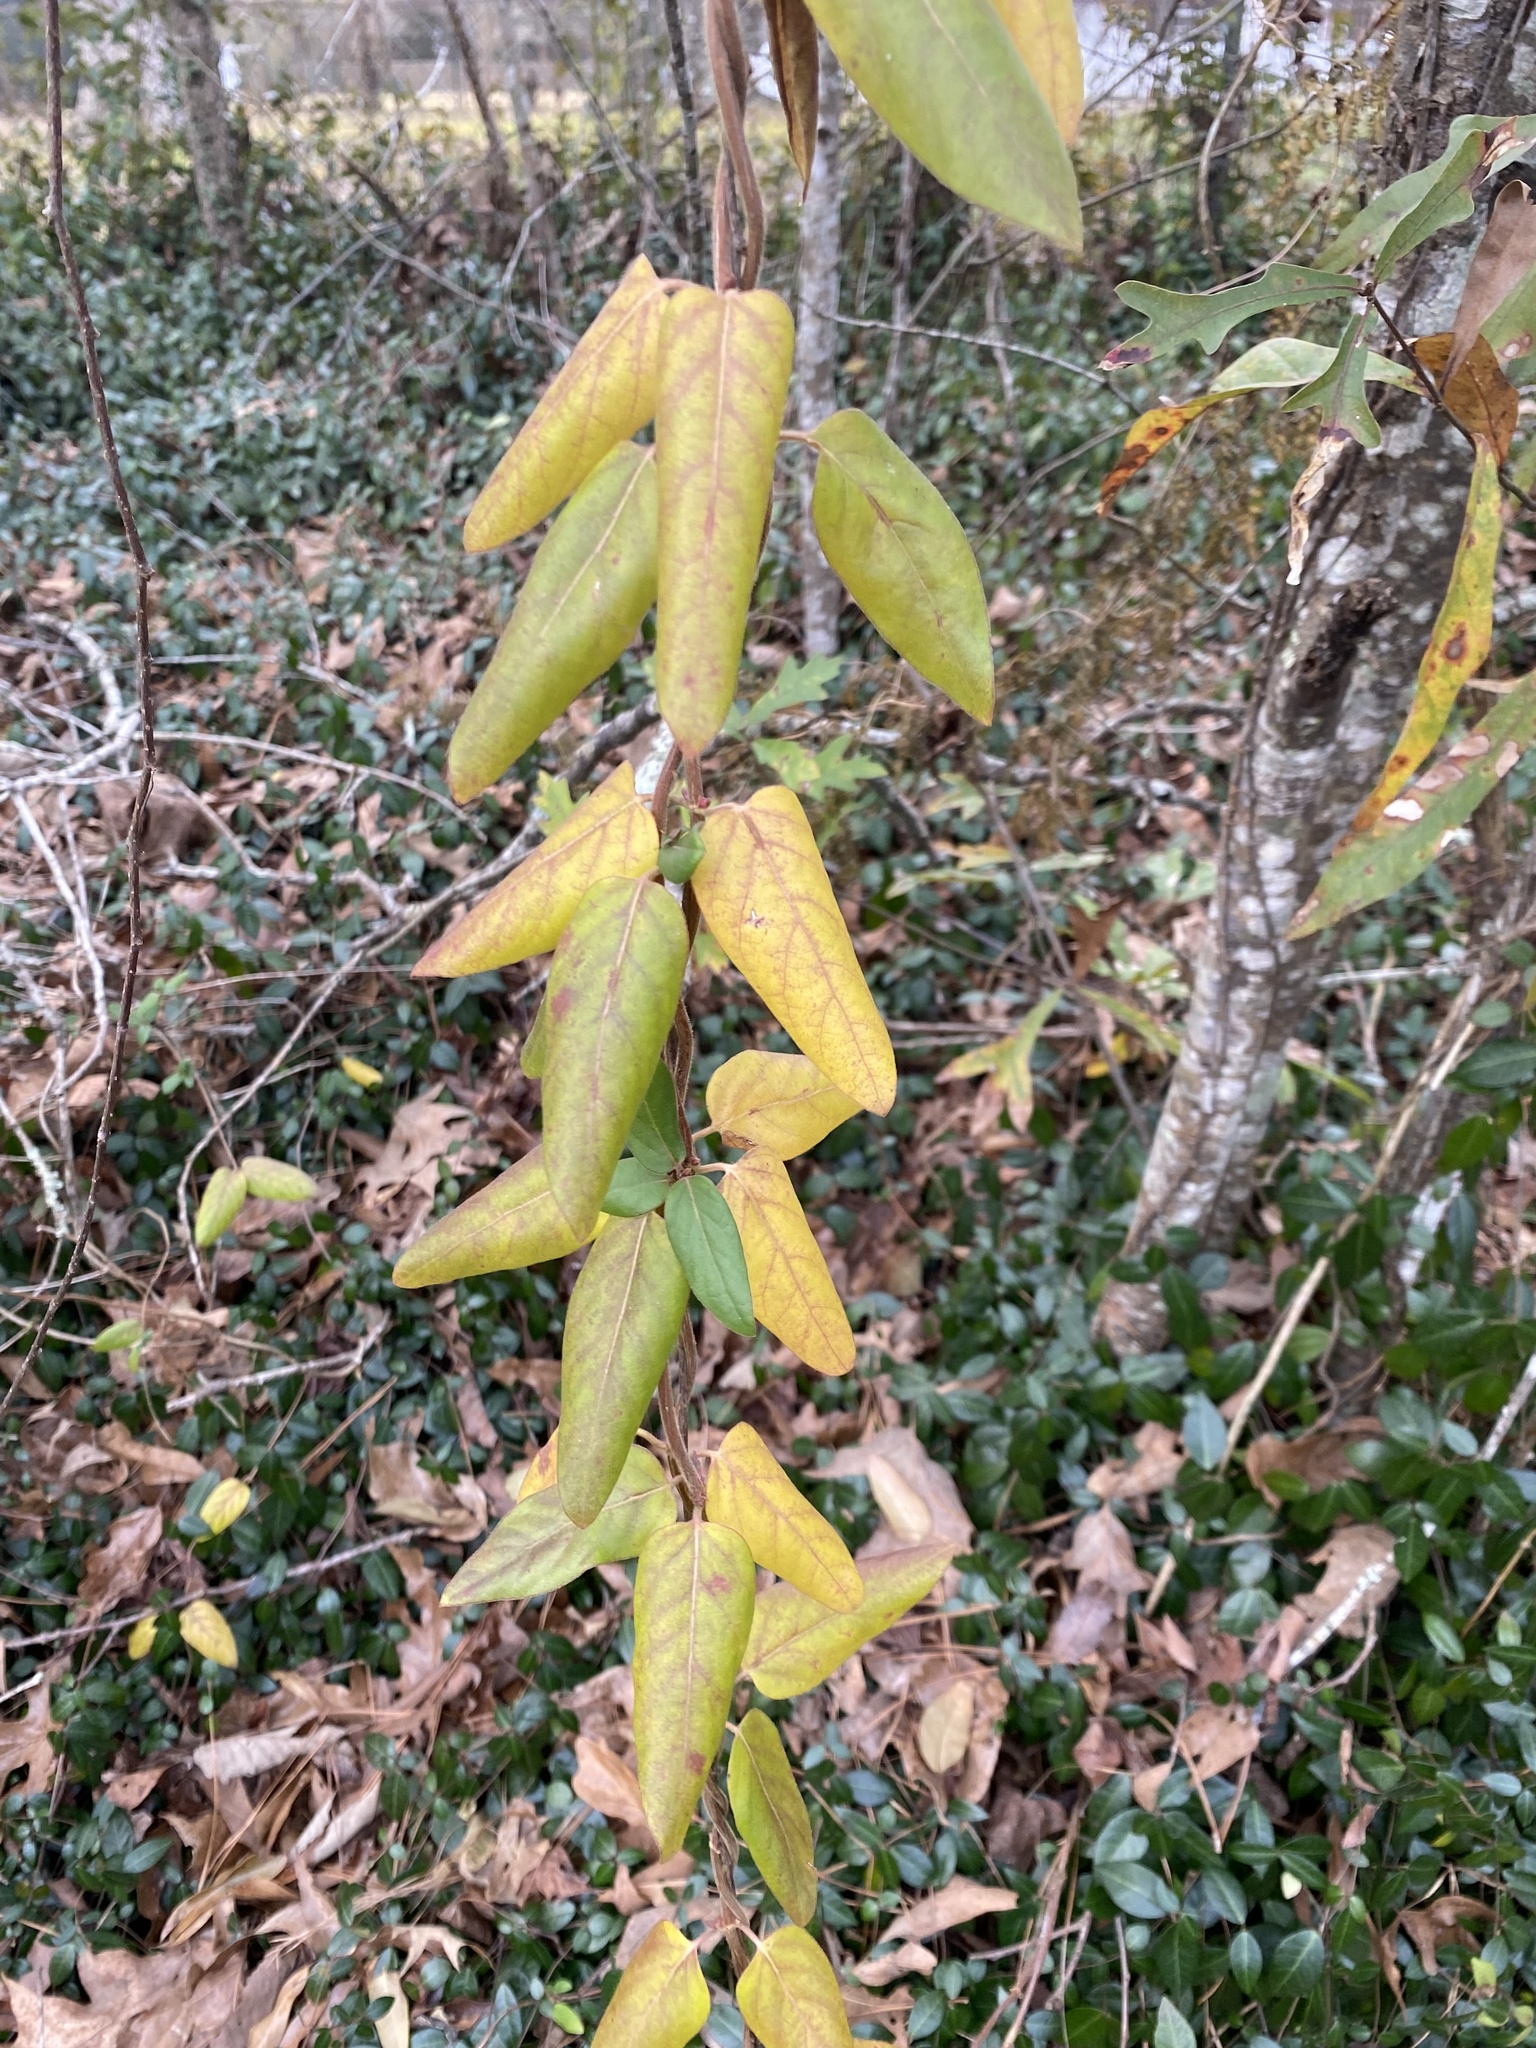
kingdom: Plantae
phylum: Tracheophyta
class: Magnoliopsida
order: Dipsacales
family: Caprifoliaceae
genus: Lonicera
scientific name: Lonicera japonica
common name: Japanese honeysuckle
